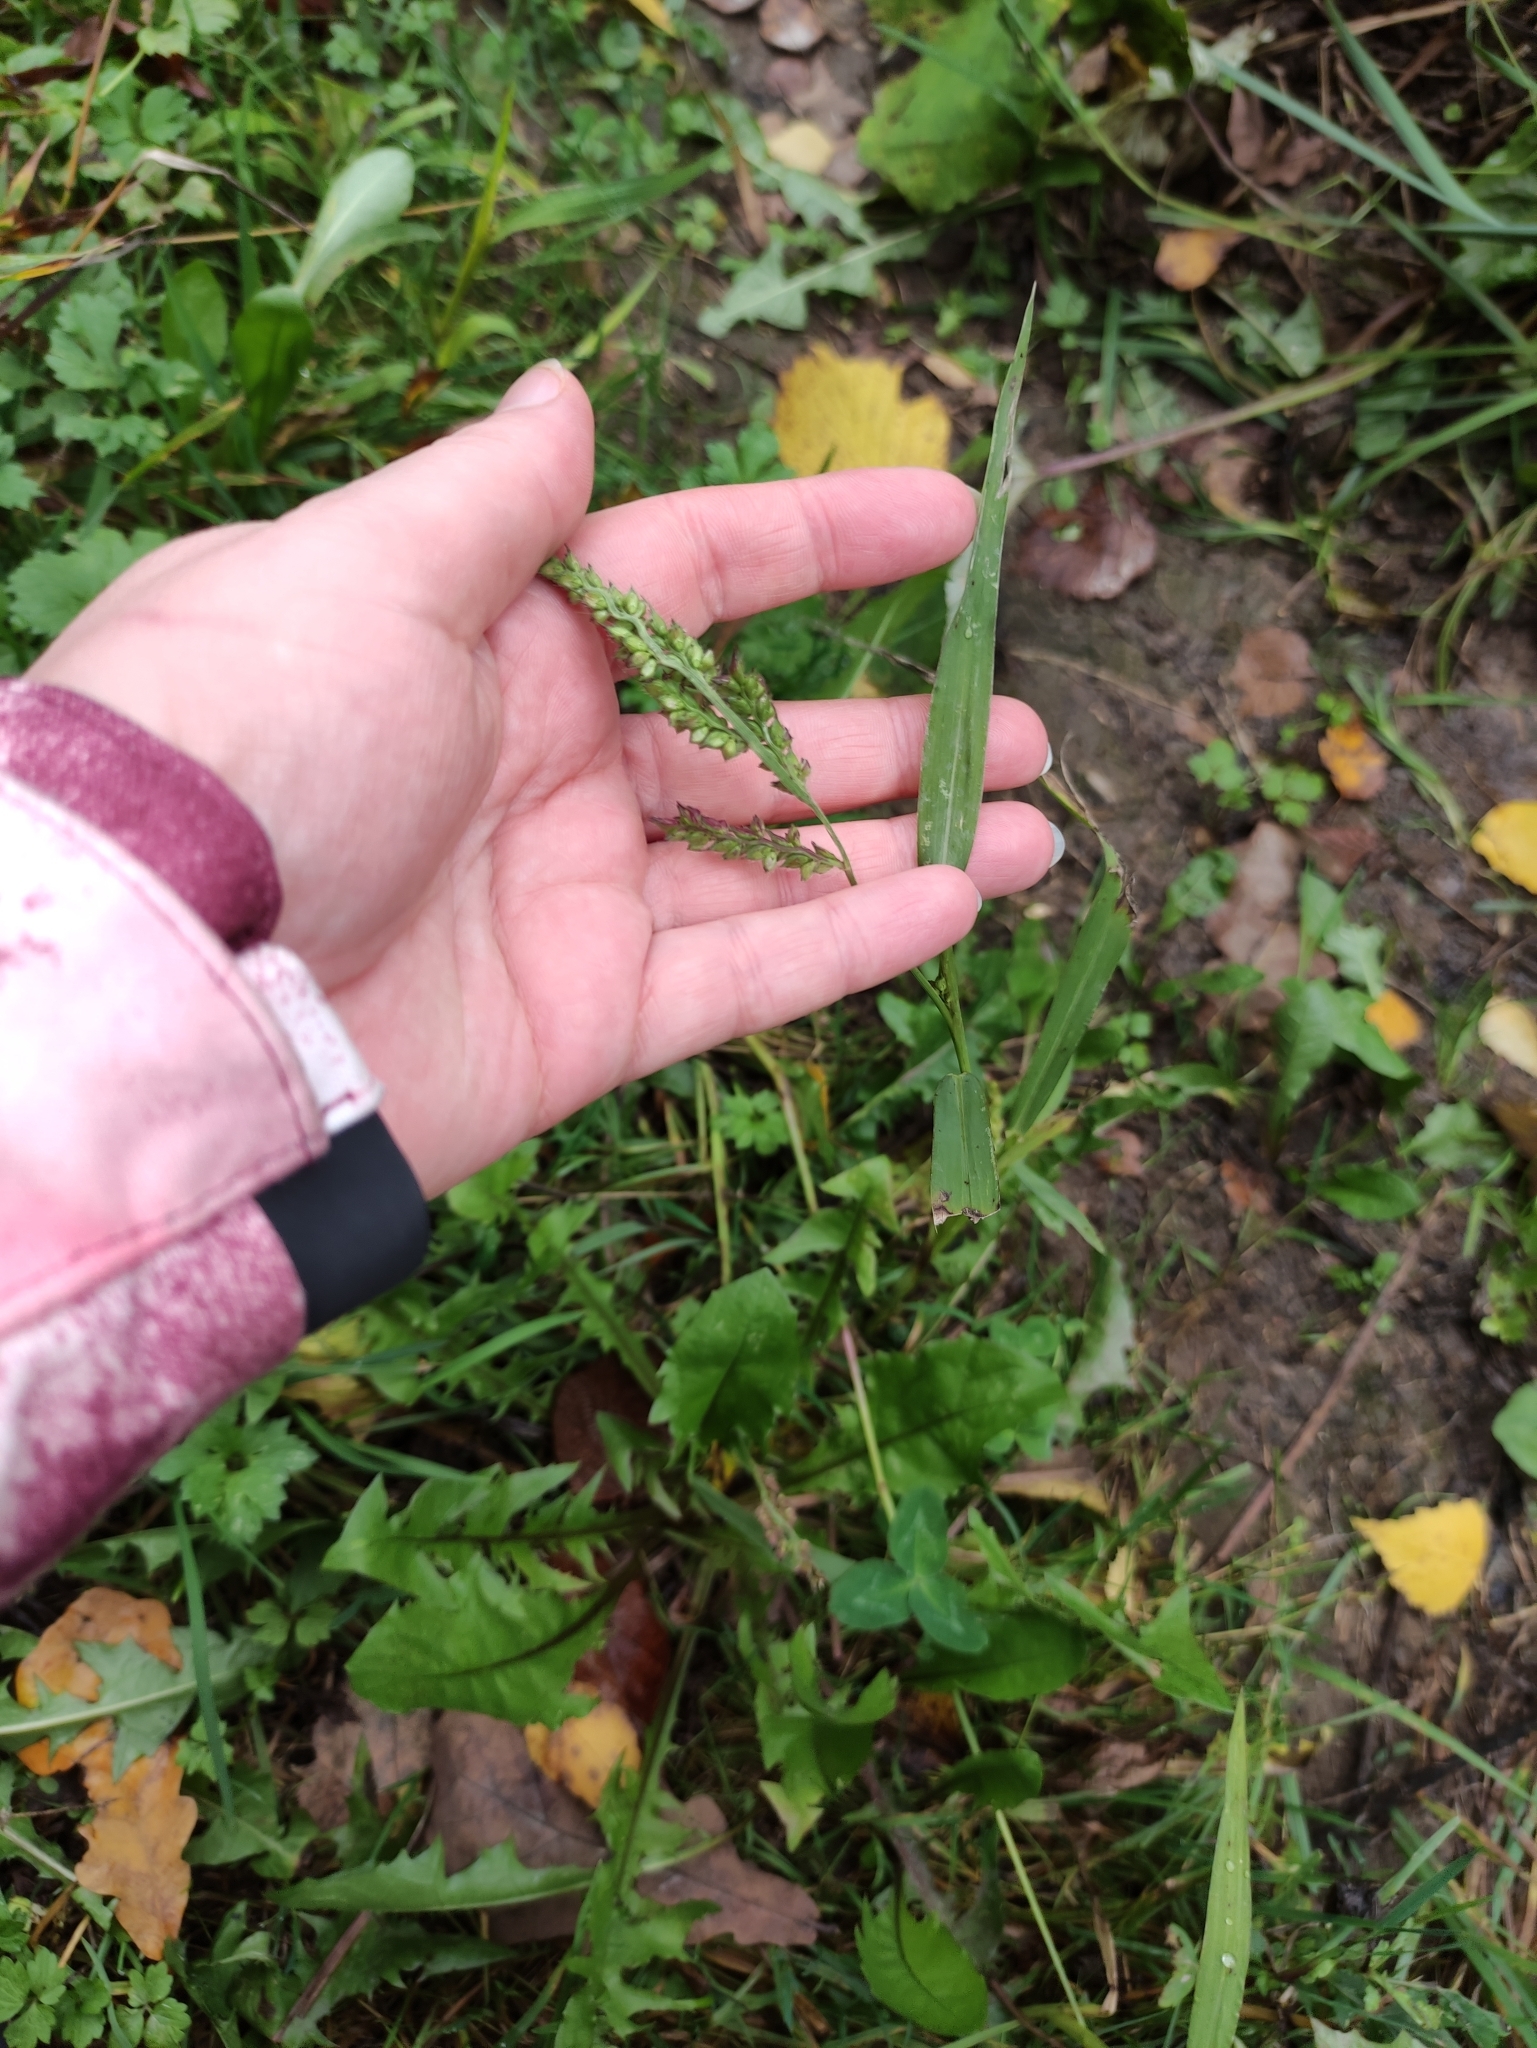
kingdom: Plantae
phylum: Tracheophyta
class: Liliopsida
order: Poales
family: Poaceae
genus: Echinochloa
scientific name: Echinochloa crus-galli
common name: Cockspur
